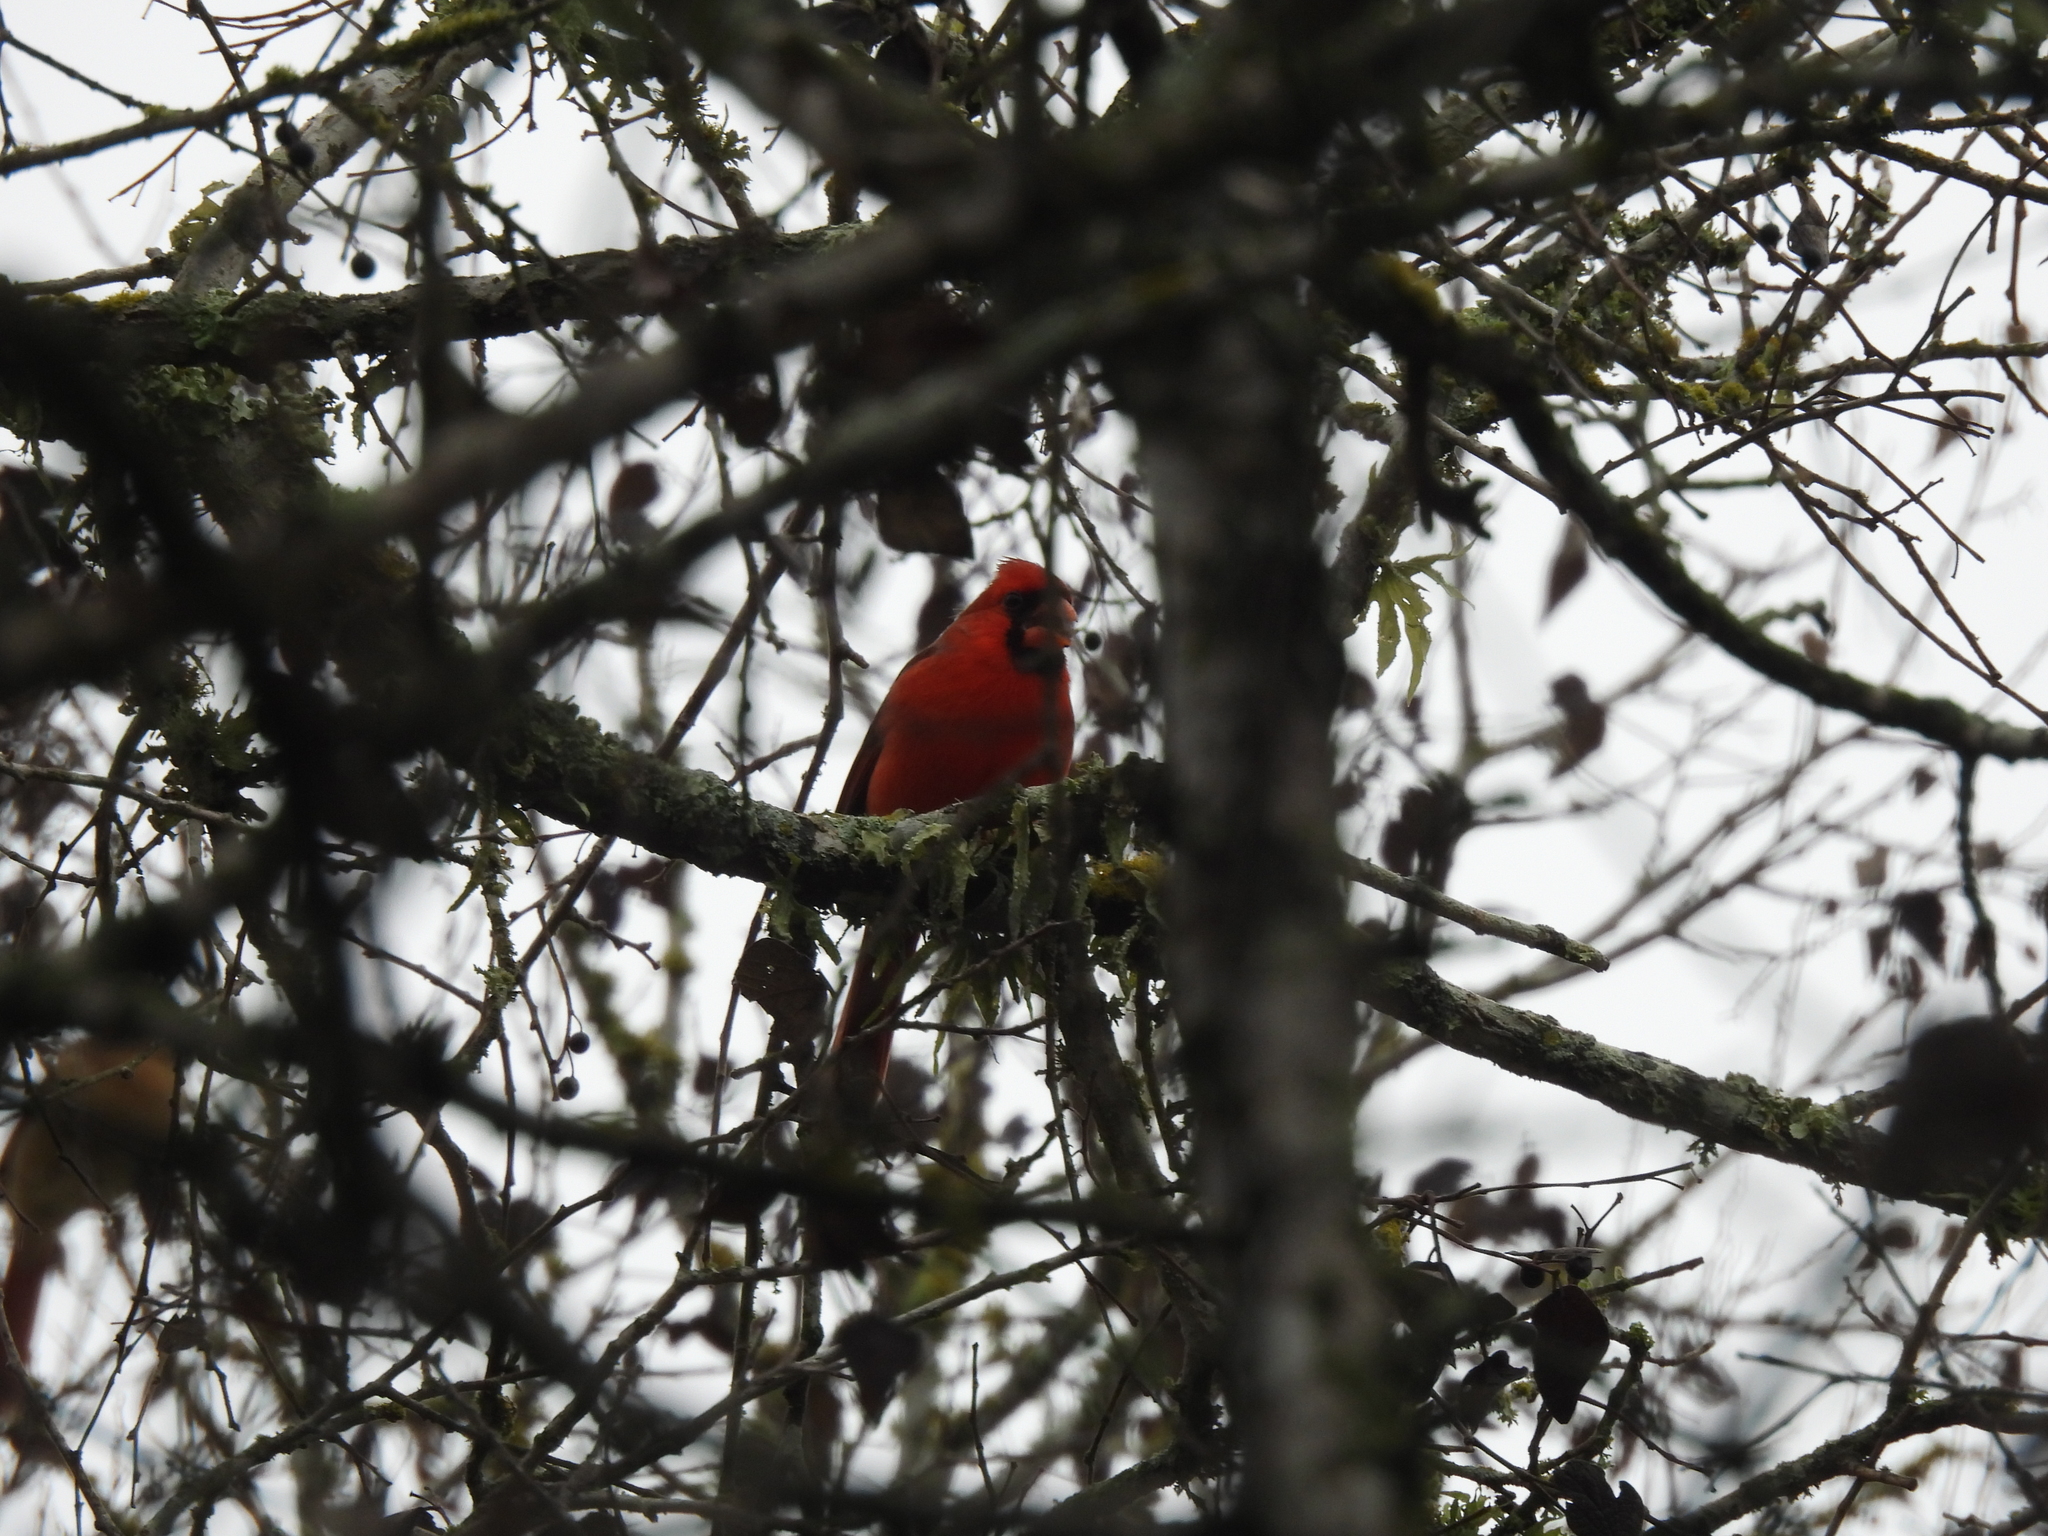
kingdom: Animalia
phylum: Chordata
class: Aves
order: Passeriformes
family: Cardinalidae
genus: Cardinalis
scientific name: Cardinalis cardinalis
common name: Northern cardinal
